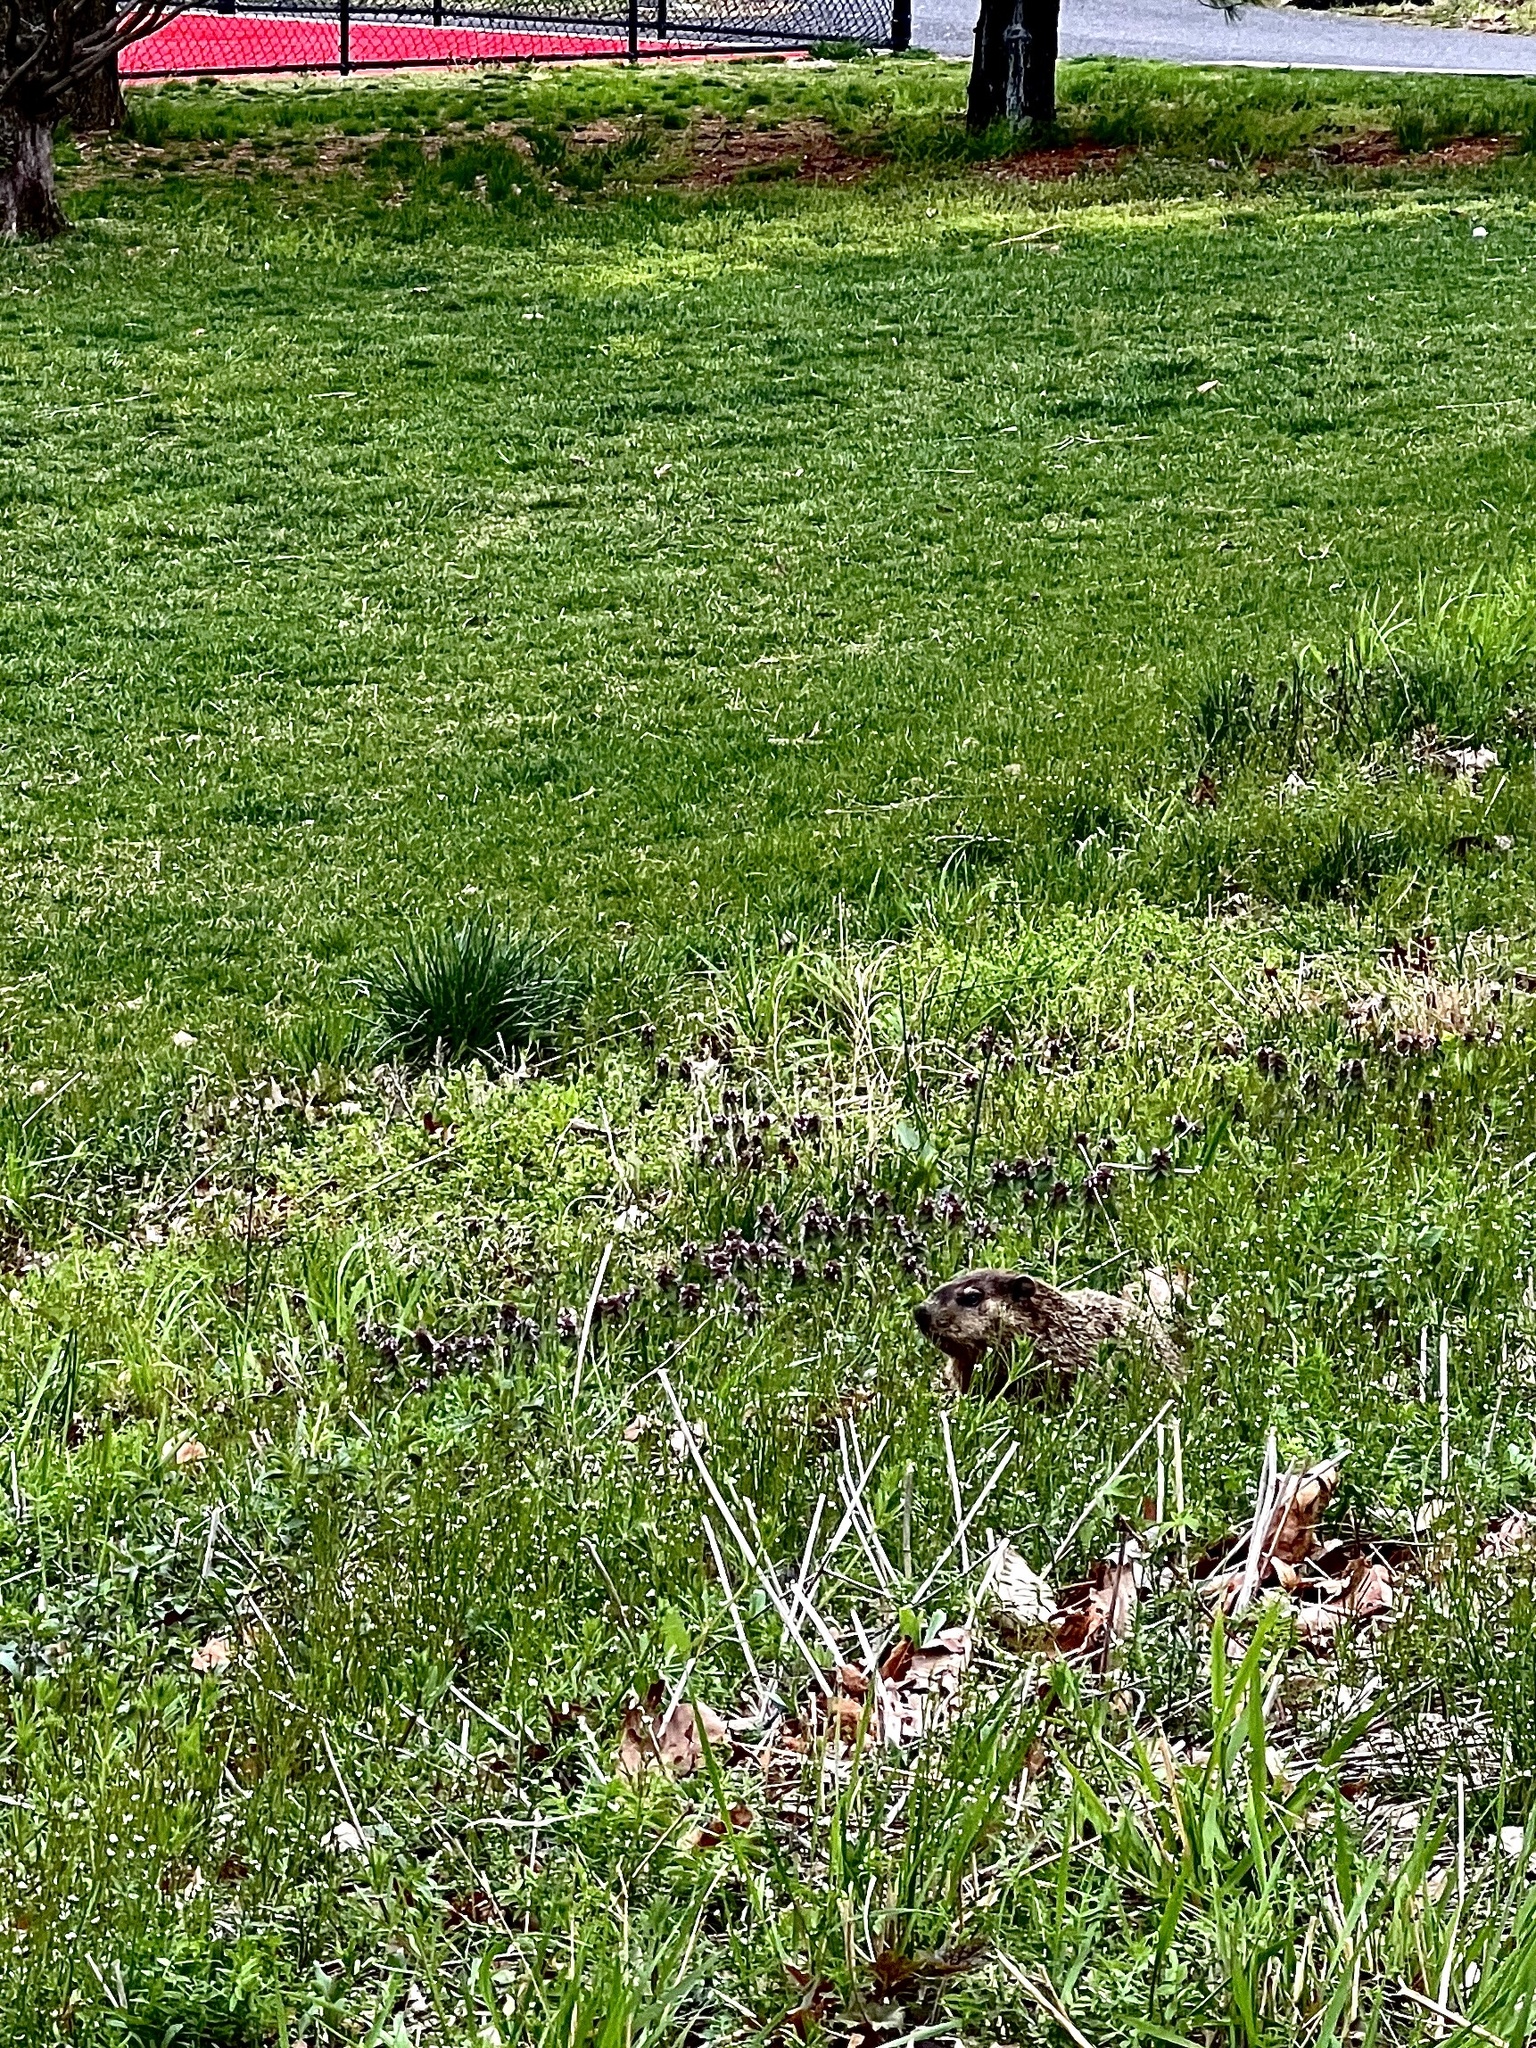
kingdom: Animalia
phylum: Chordata
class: Mammalia
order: Rodentia
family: Sciuridae
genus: Marmota
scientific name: Marmota monax
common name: Groundhog
